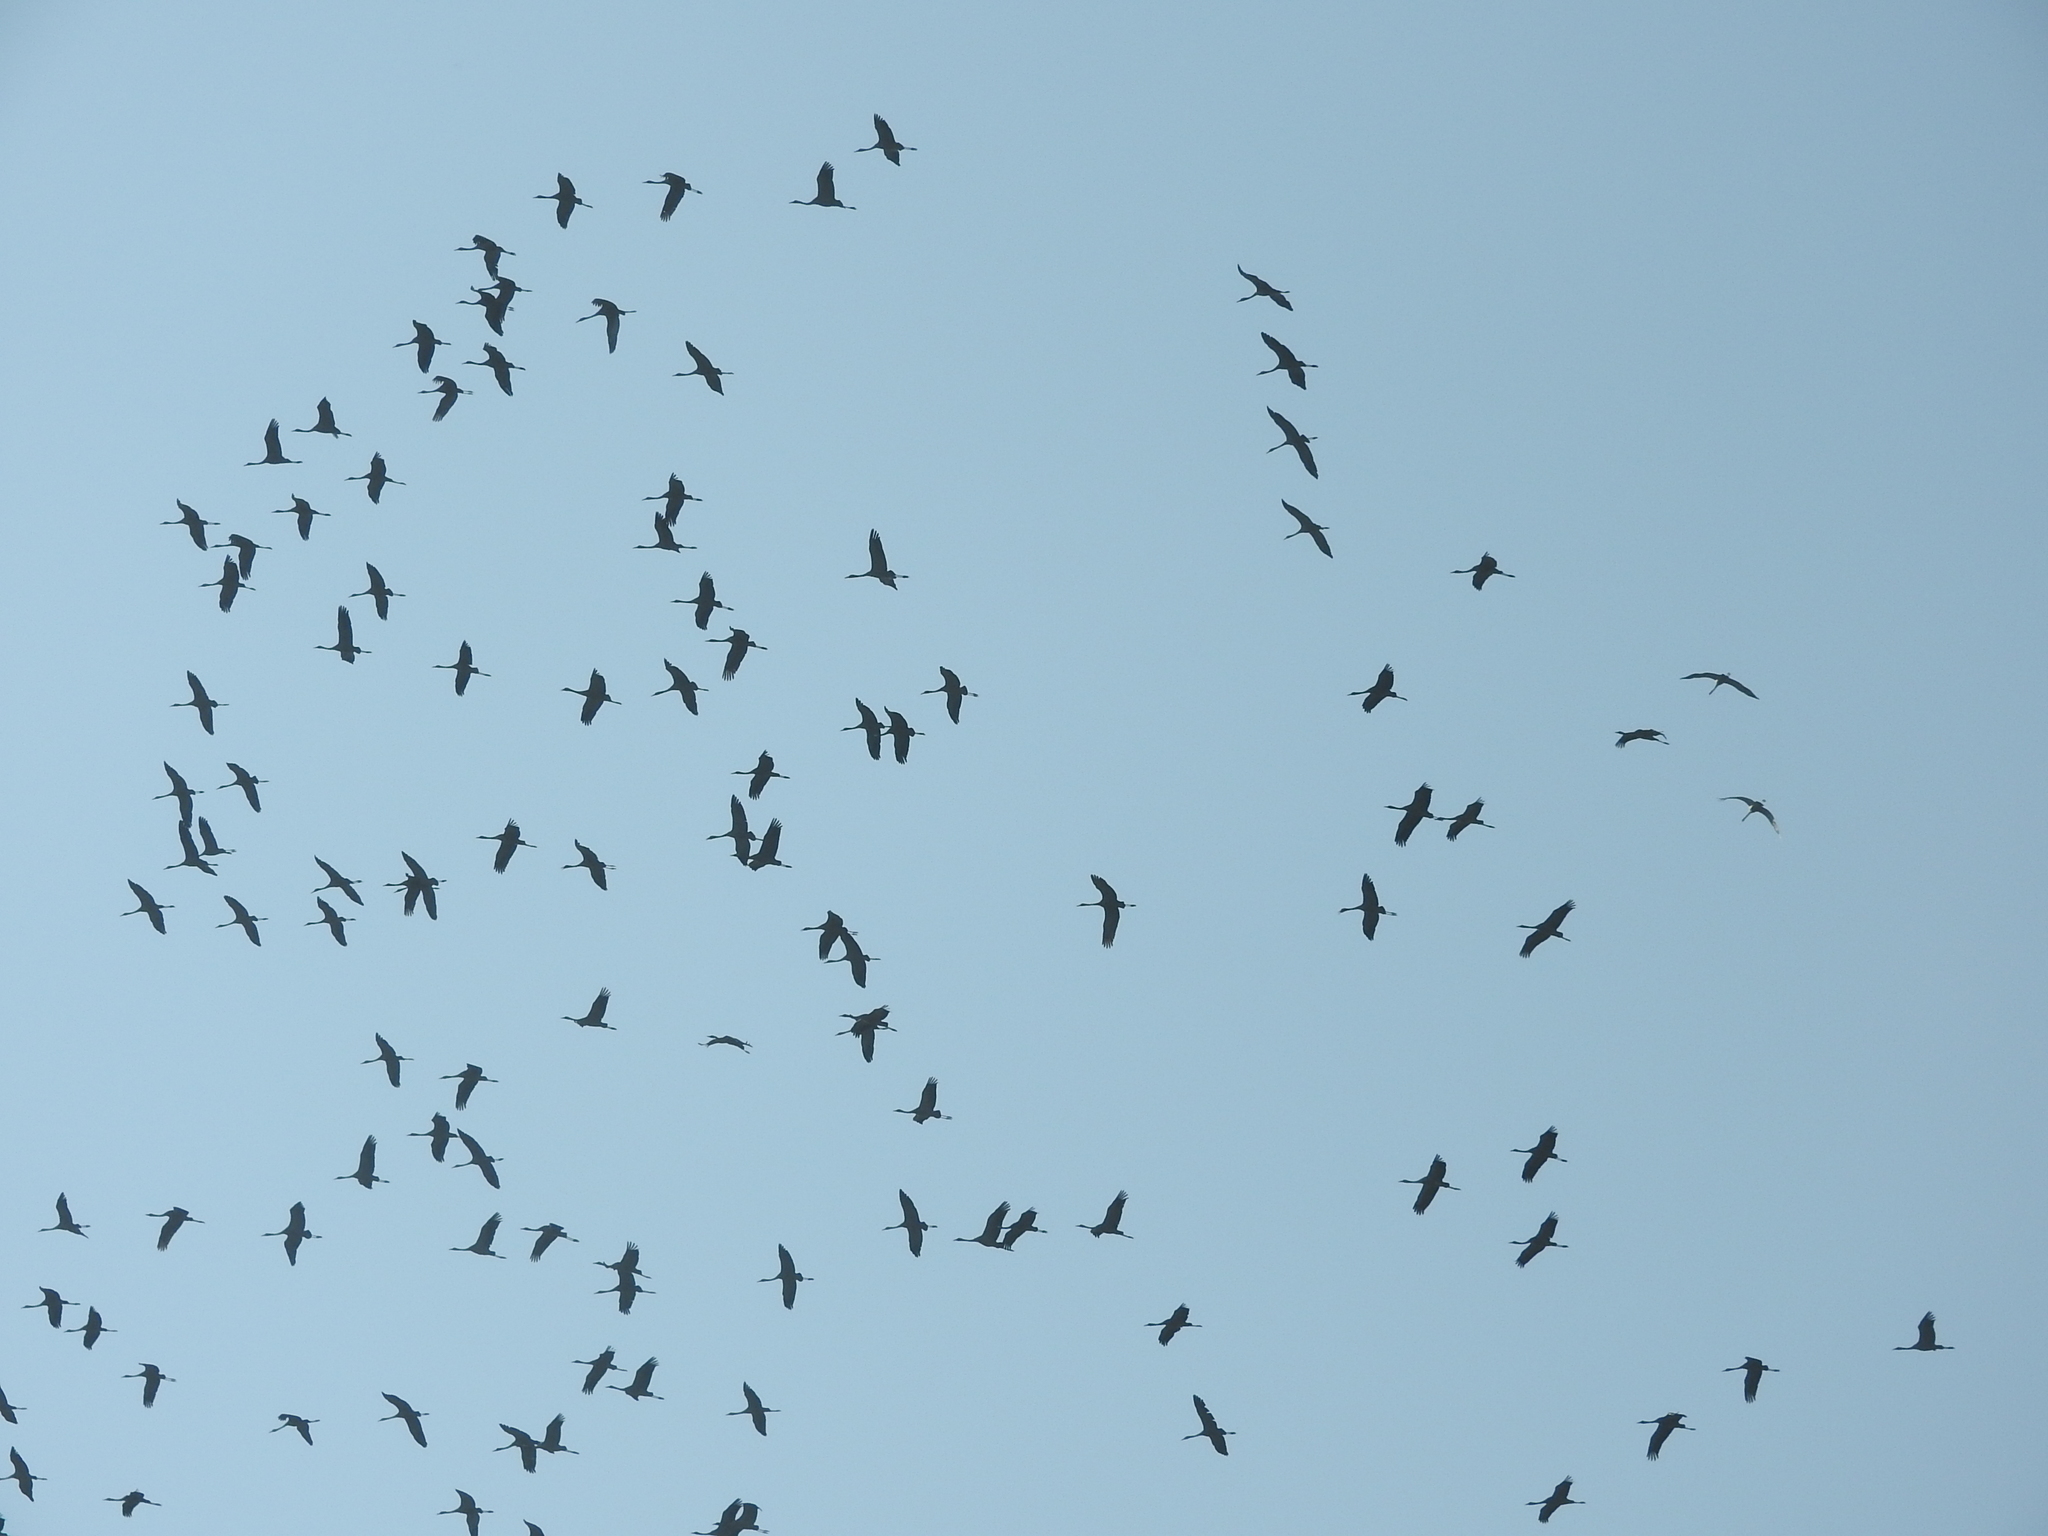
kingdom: Animalia
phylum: Chordata
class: Aves
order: Gruiformes
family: Gruidae
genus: Grus
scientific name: Grus grus
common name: Common crane
